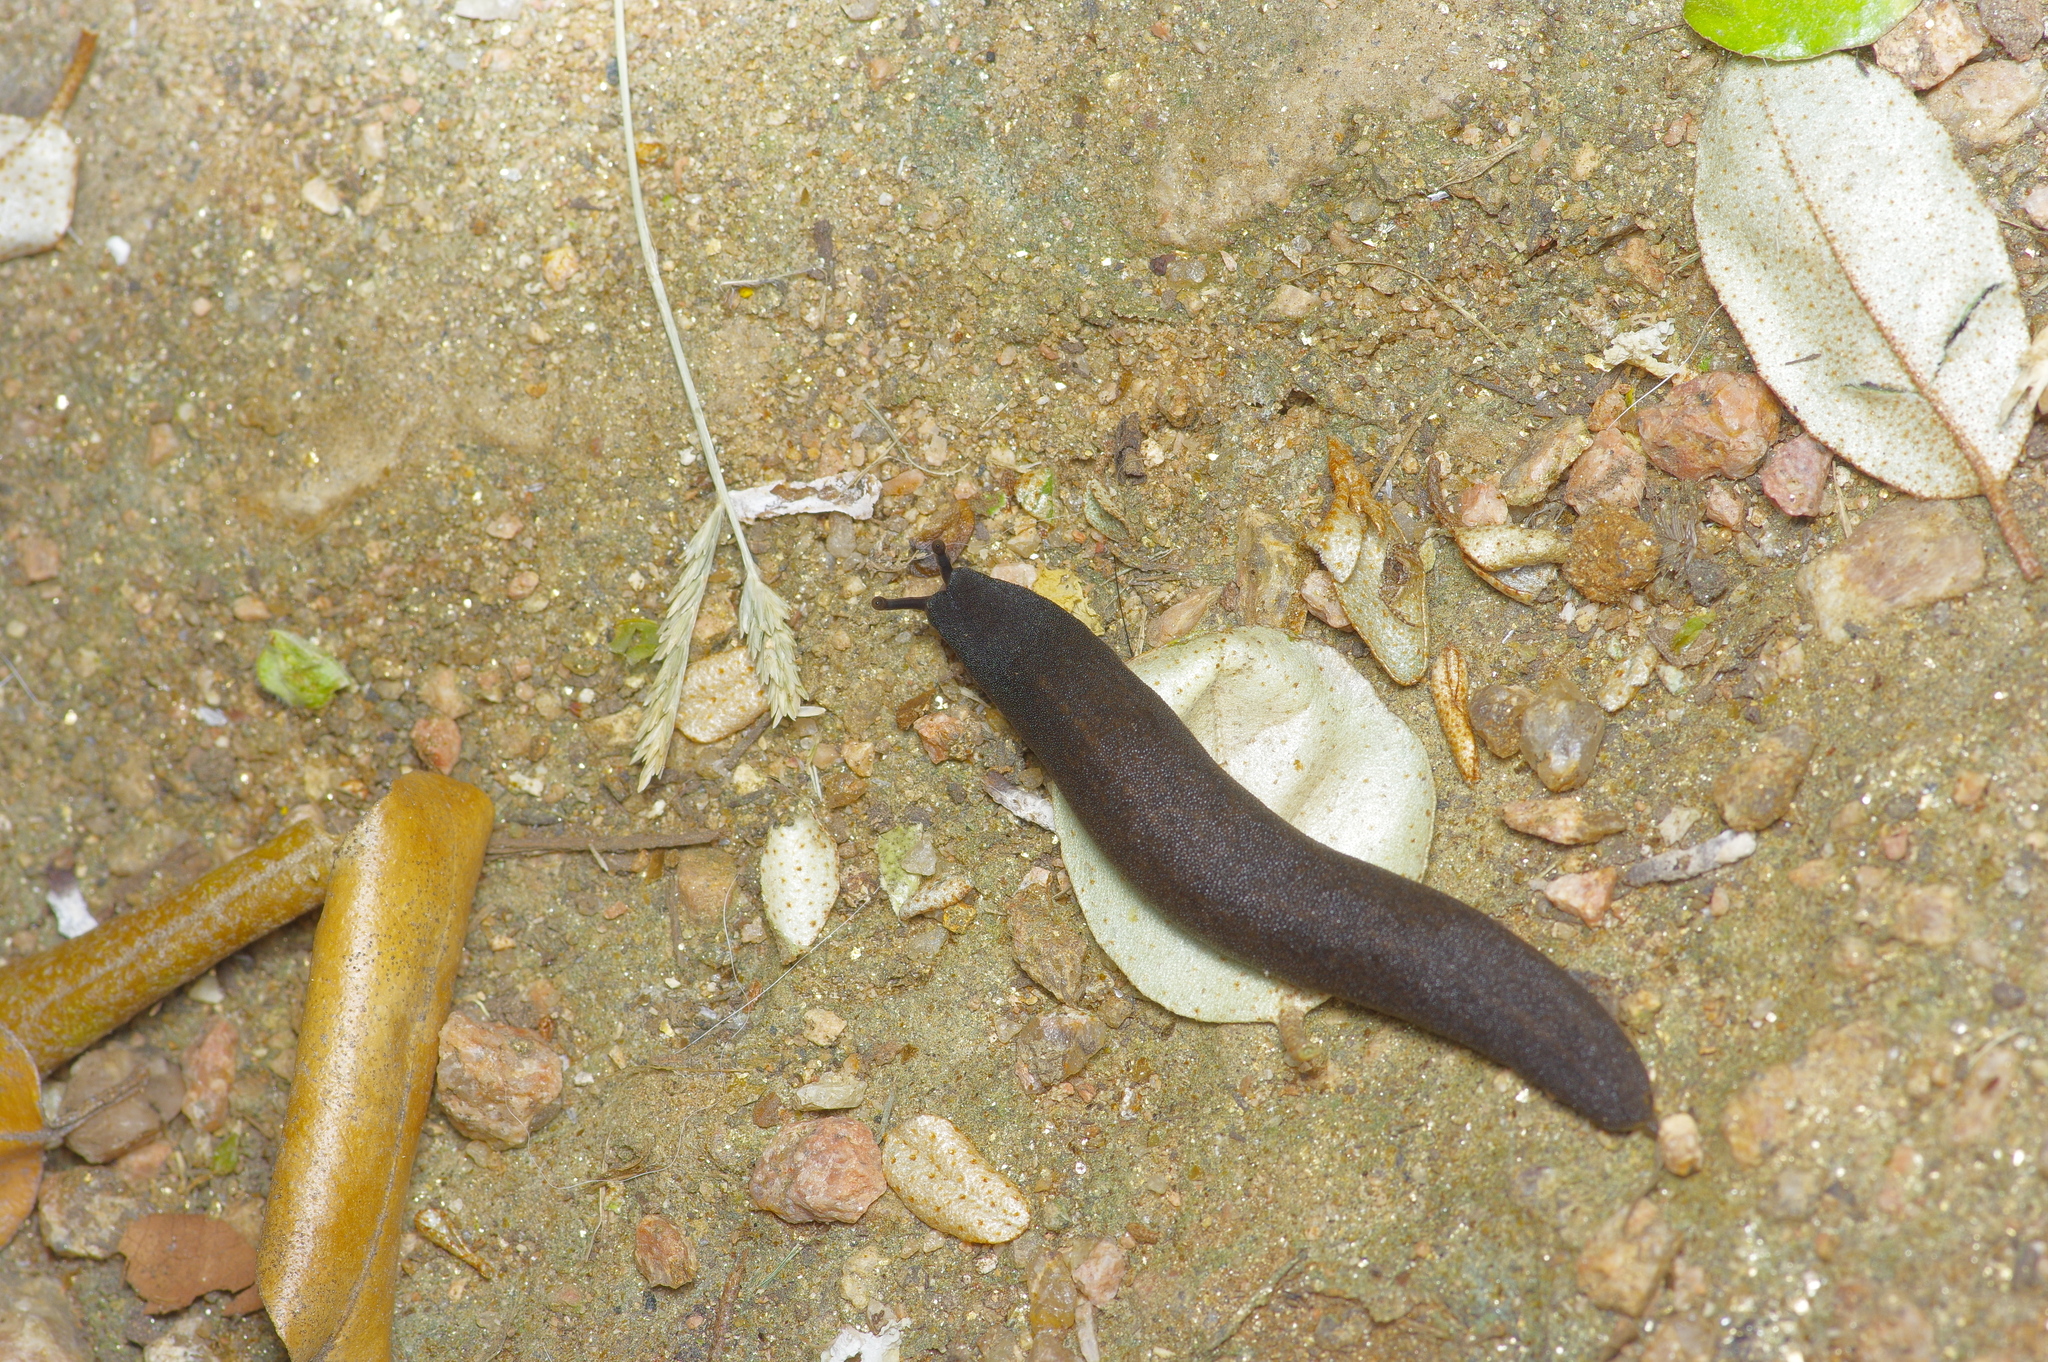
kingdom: Animalia
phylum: Mollusca
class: Gastropoda
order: Systellommatophora
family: Veronicellidae
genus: Belocaulus
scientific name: Belocaulus angustipes
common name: Black velvet leatherleaf slug
